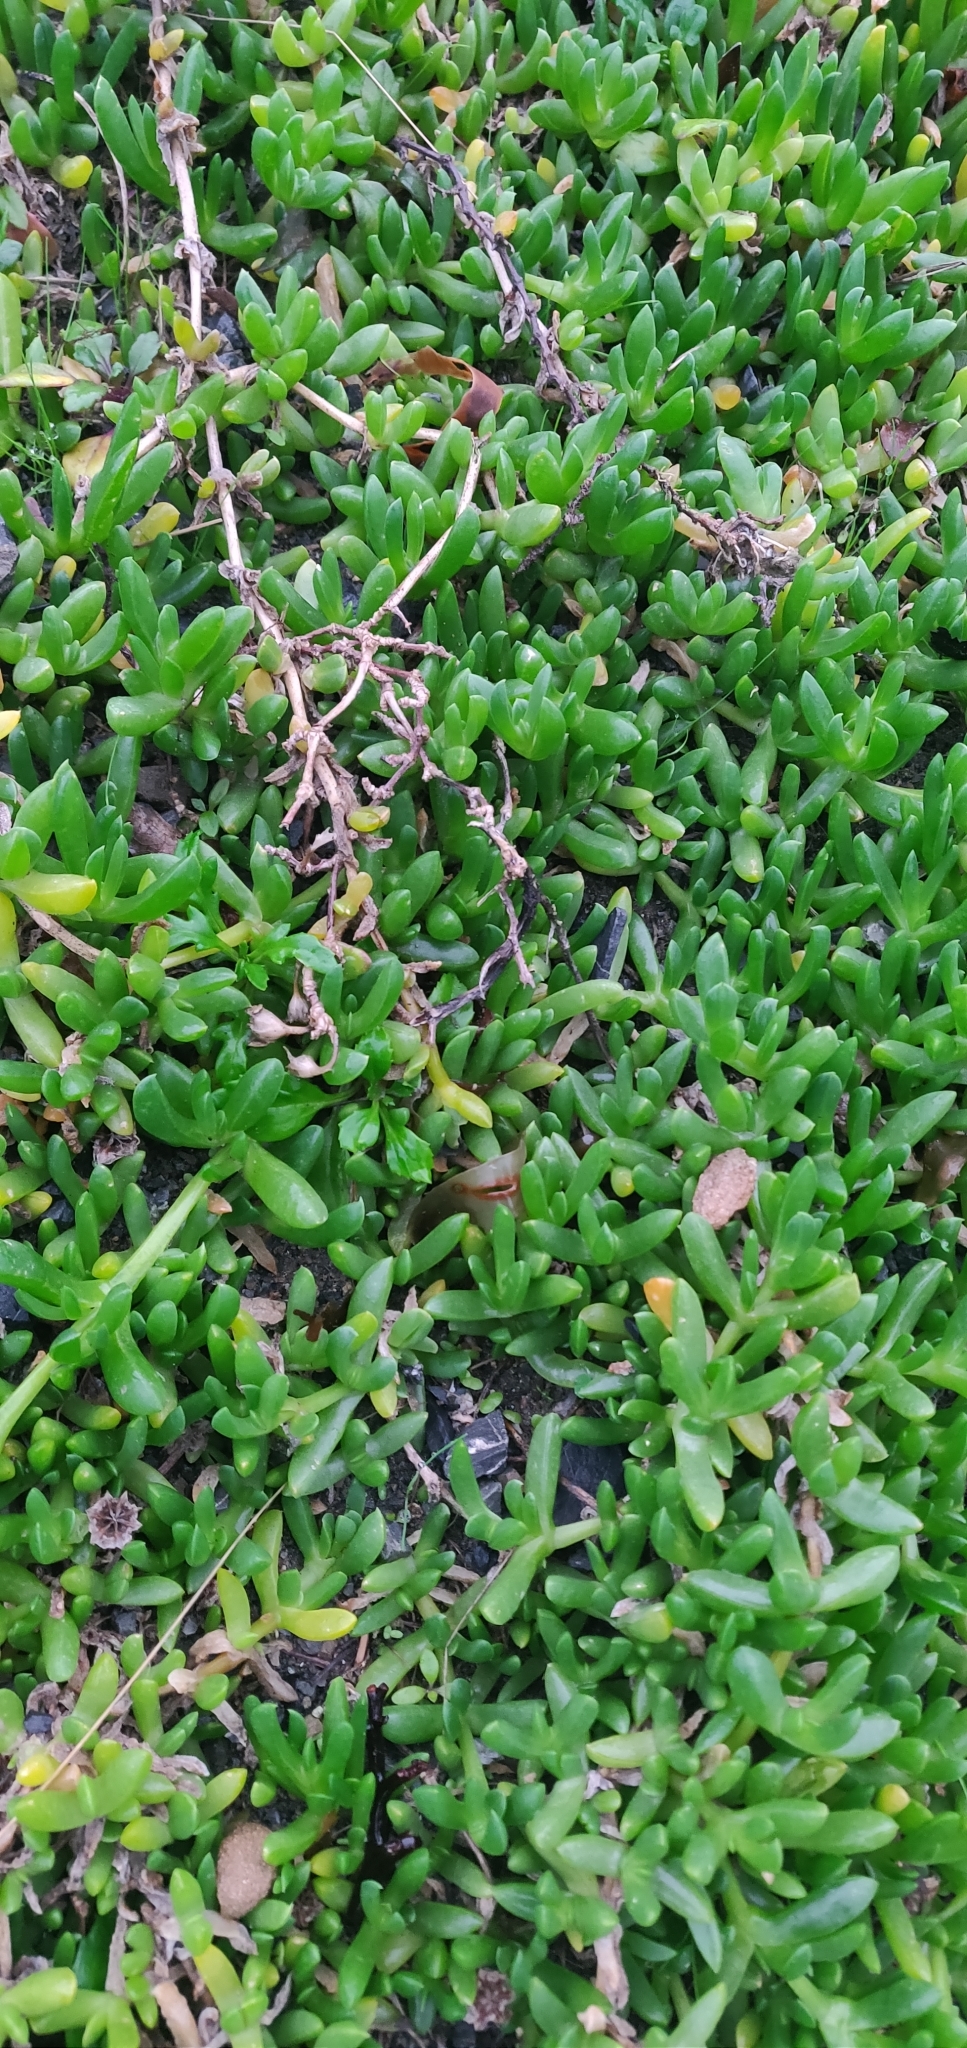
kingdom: Plantae
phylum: Tracheophyta
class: Magnoliopsida
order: Caryophyllales
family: Aizoaceae
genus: Disphyma
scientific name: Disphyma australe
